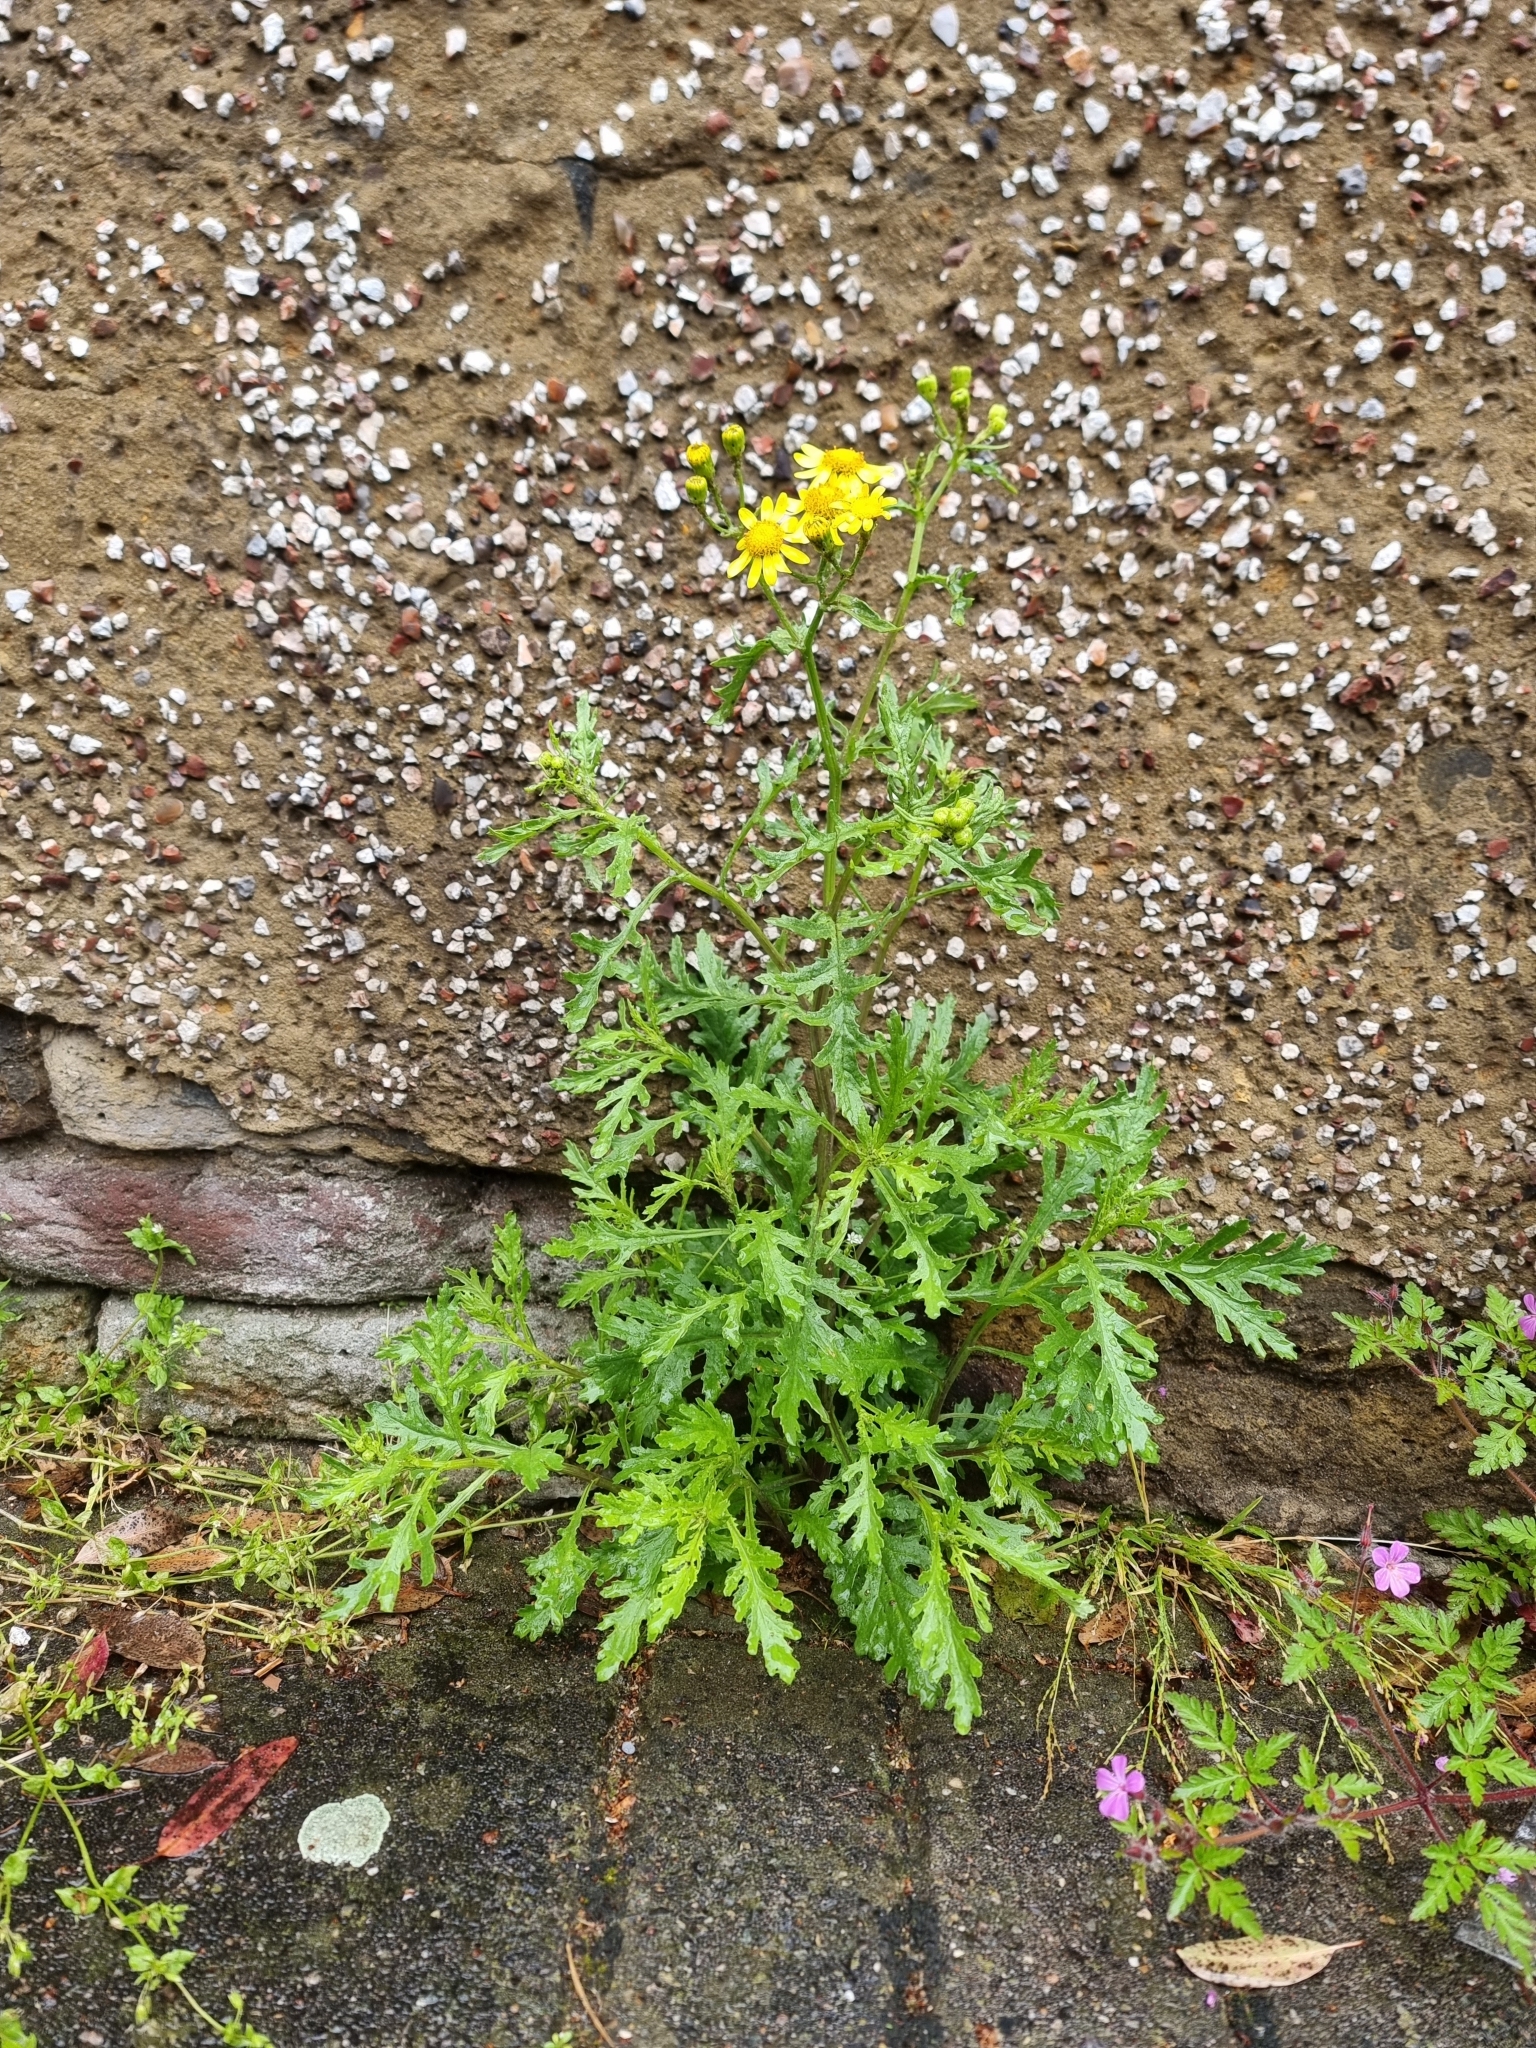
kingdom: Plantae
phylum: Tracheophyta
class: Magnoliopsida
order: Asterales
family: Asteraceae
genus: Senecio
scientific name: Senecio squalidus
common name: Oxford ragwort
